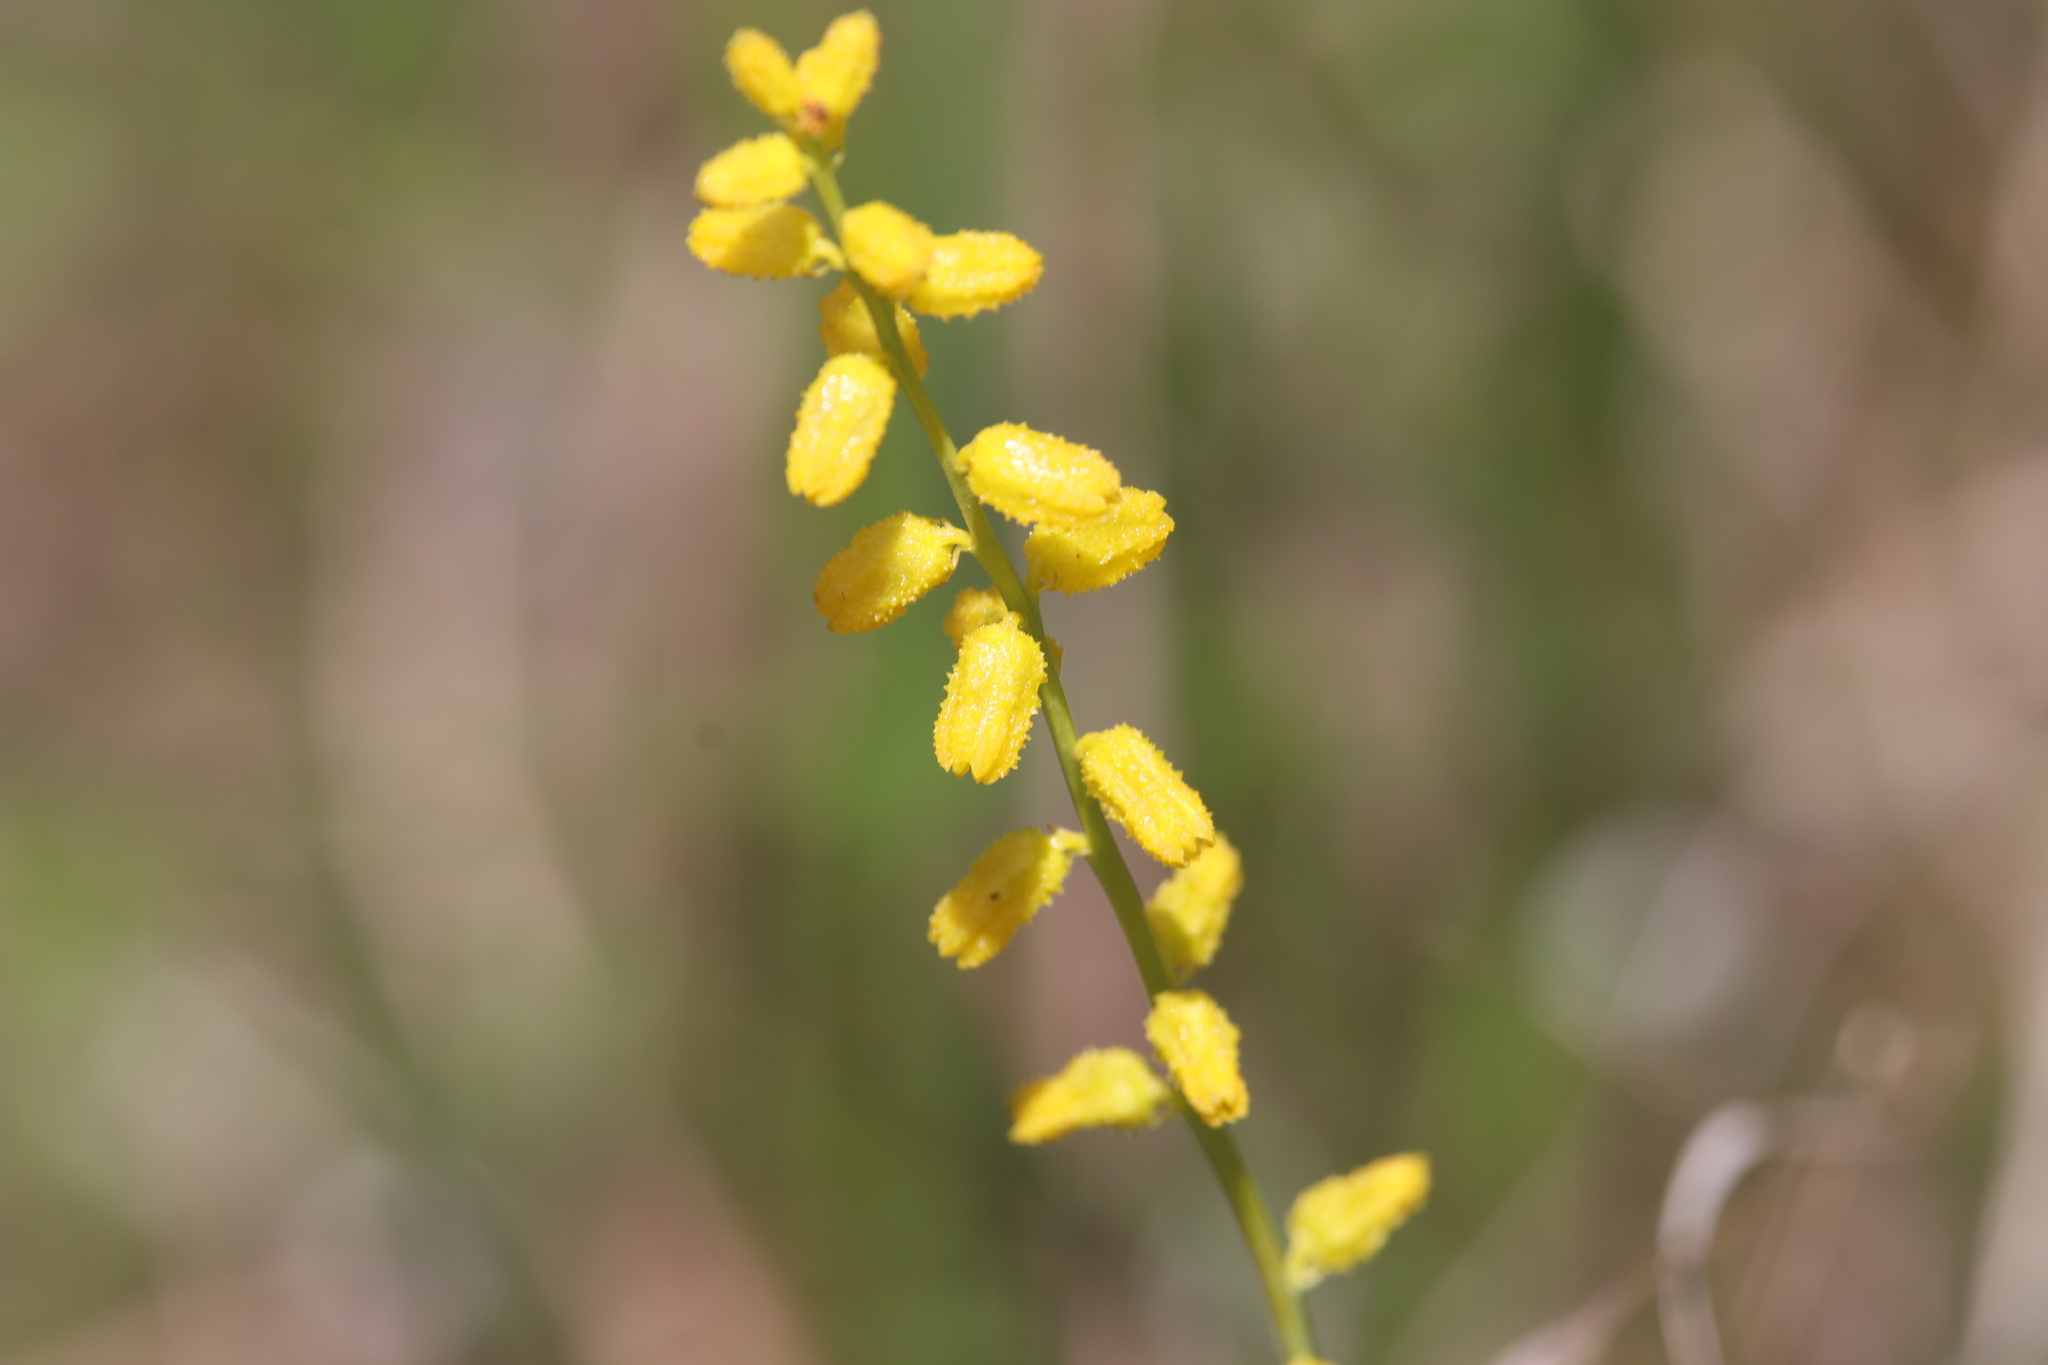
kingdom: Plantae
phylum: Tracheophyta
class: Liliopsida
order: Dioscoreales
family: Nartheciaceae
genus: Aletris
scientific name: Aletris aurea
